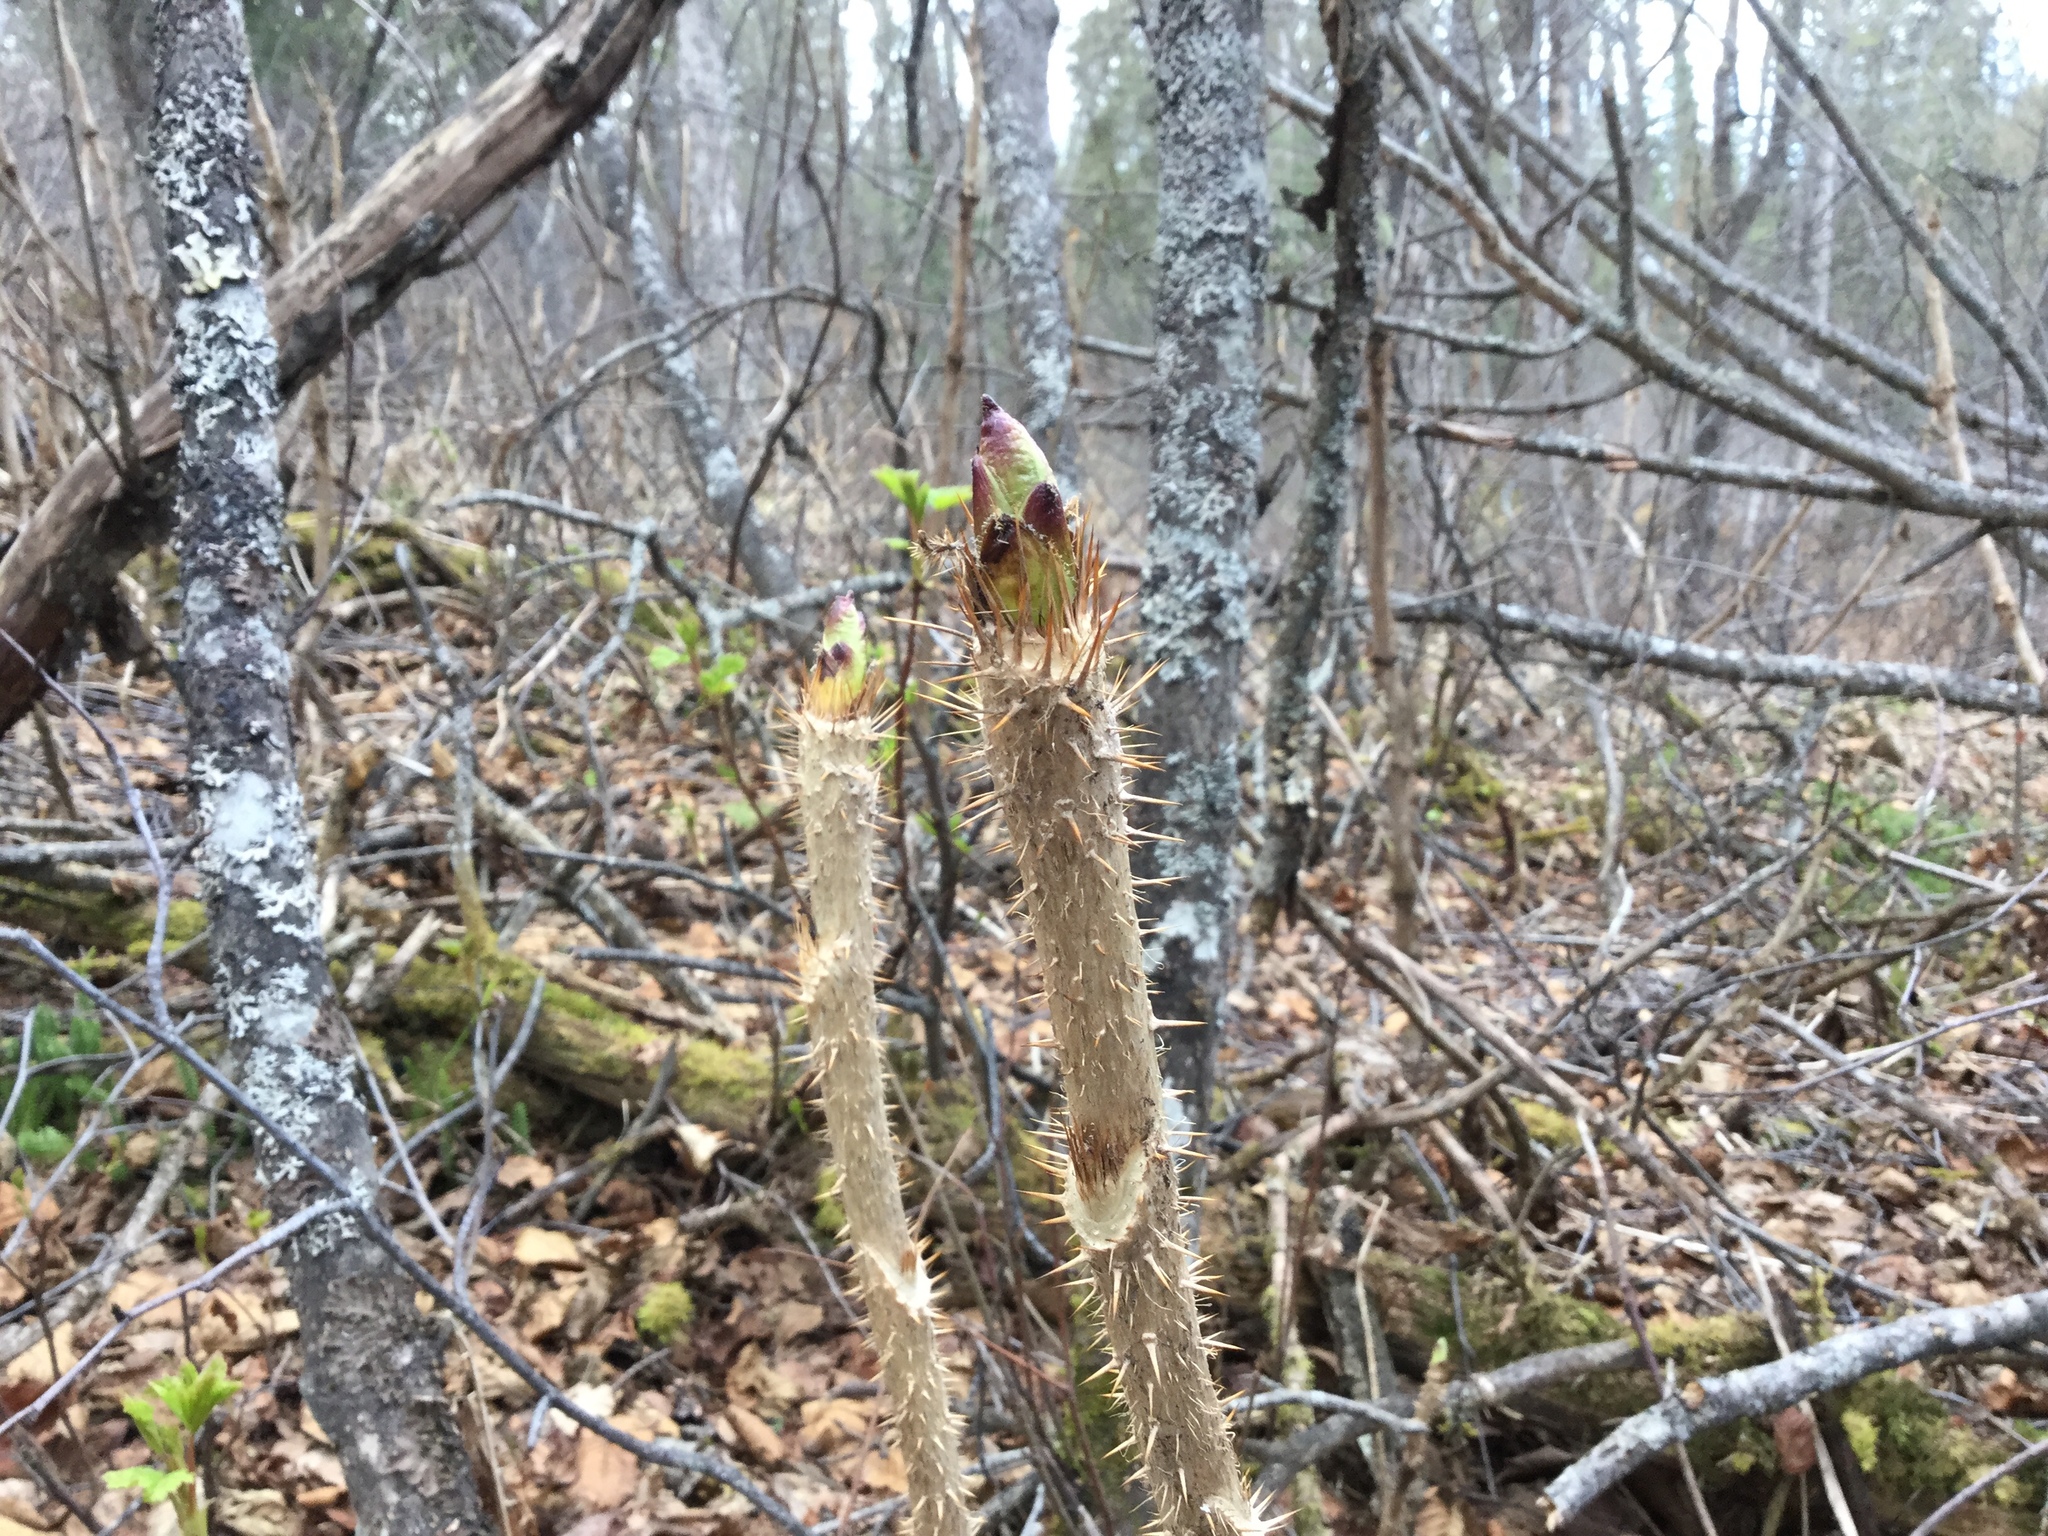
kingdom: Plantae
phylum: Tracheophyta
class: Magnoliopsida
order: Apiales
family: Araliaceae
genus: Oplopanax
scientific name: Oplopanax horridus
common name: Devil's walking-stick
